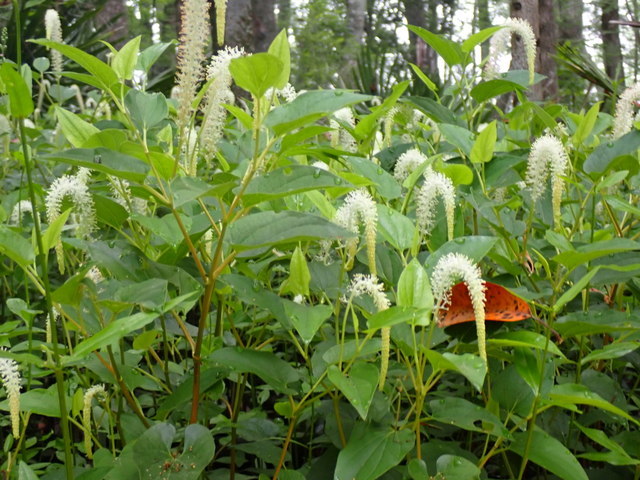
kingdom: Plantae
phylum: Tracheophyta
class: Magnoliopsida
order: Piperales
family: Saururaceae
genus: Saururus
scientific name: Saururus cernuus
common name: Lizard's-tail
